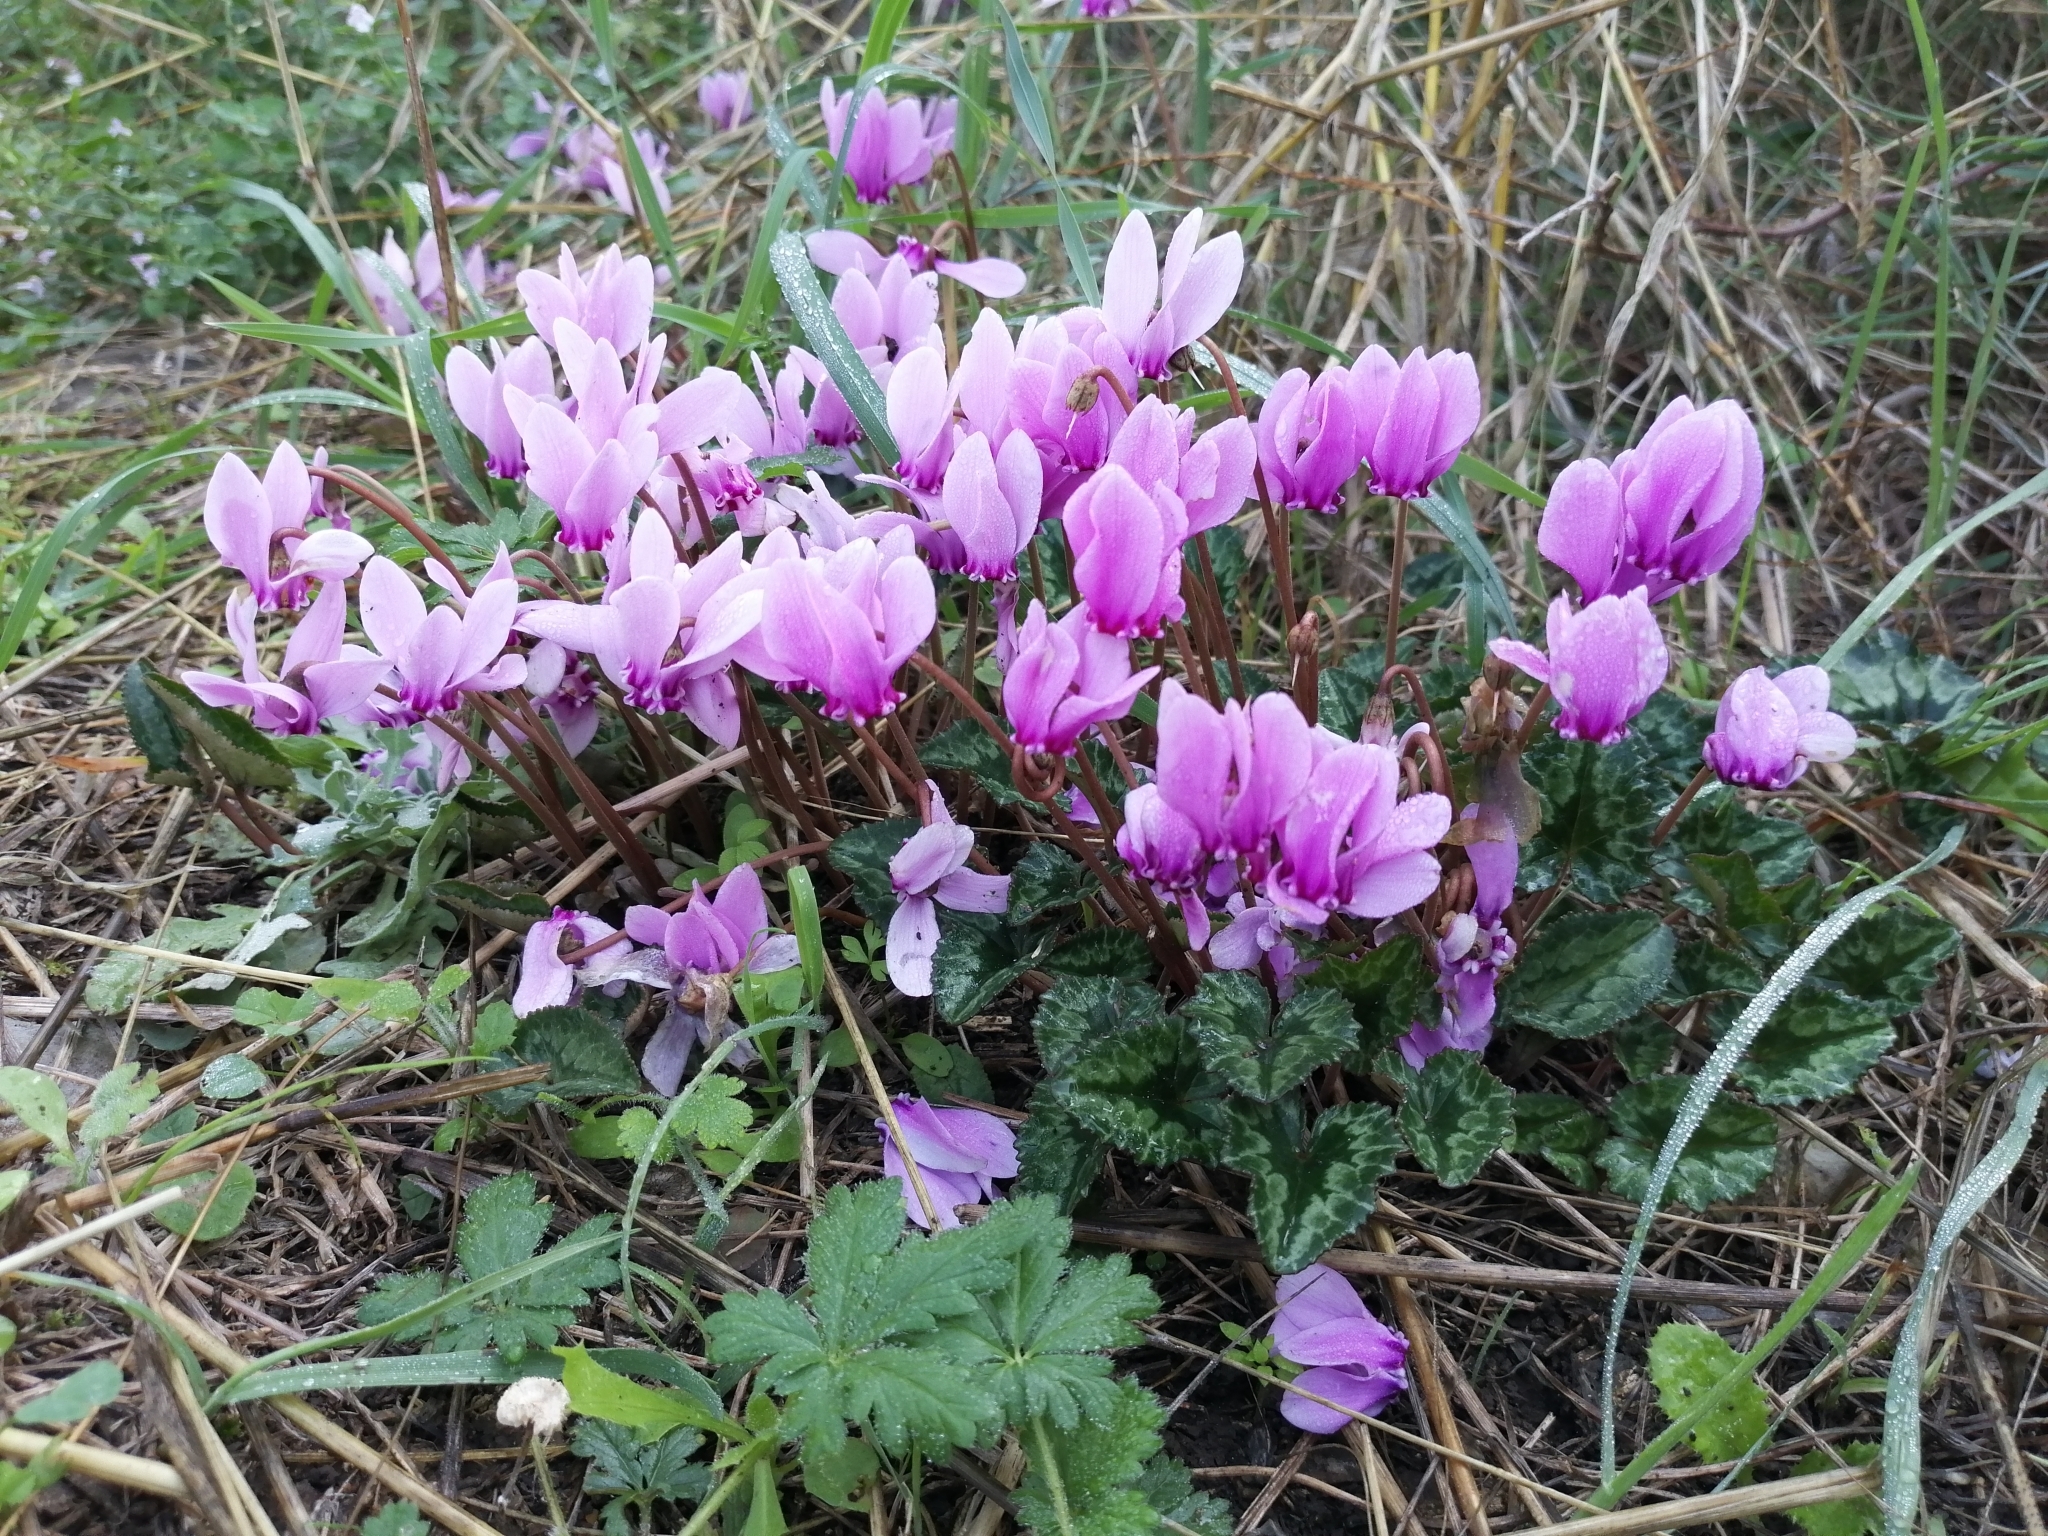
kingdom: Plantae
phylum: Tracheophyta
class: Magnoliopsida
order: Ericales
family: Primulaceae
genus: Cyclamen
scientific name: Cyclamen hederifolium
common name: Sowbread
